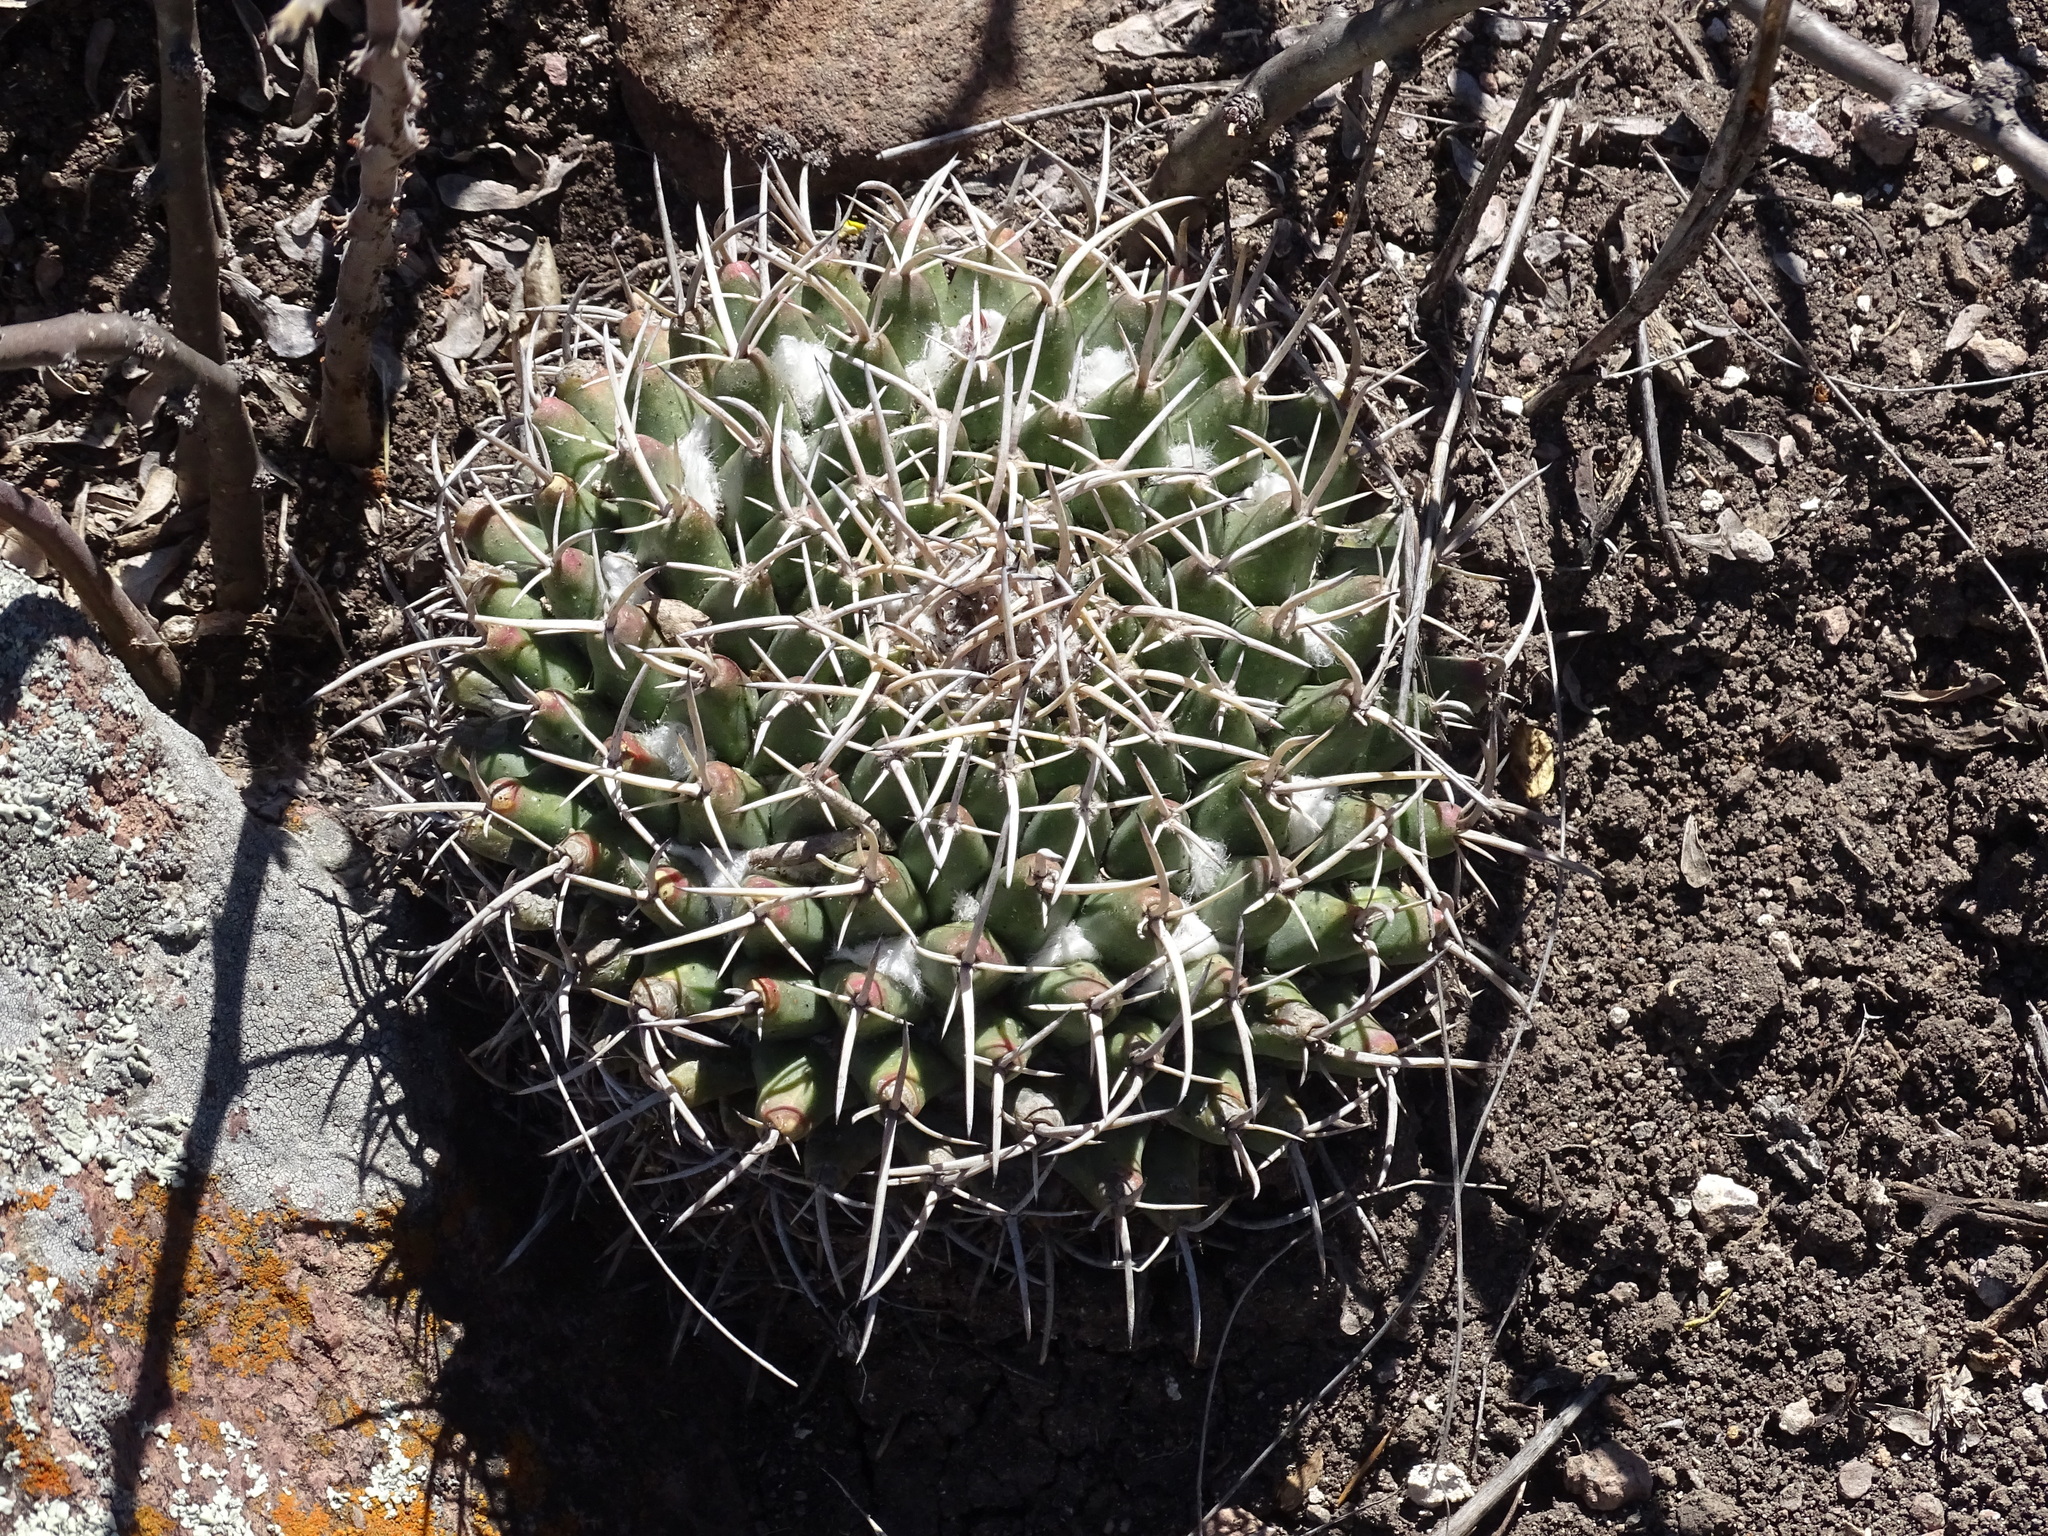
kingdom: Plantae
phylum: Tracheophyta
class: Magnoliopsida
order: Caryophyllales
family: Cactaceae
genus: Mammillaria
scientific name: Mammillaria magnimamma
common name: Mexican pincushion
